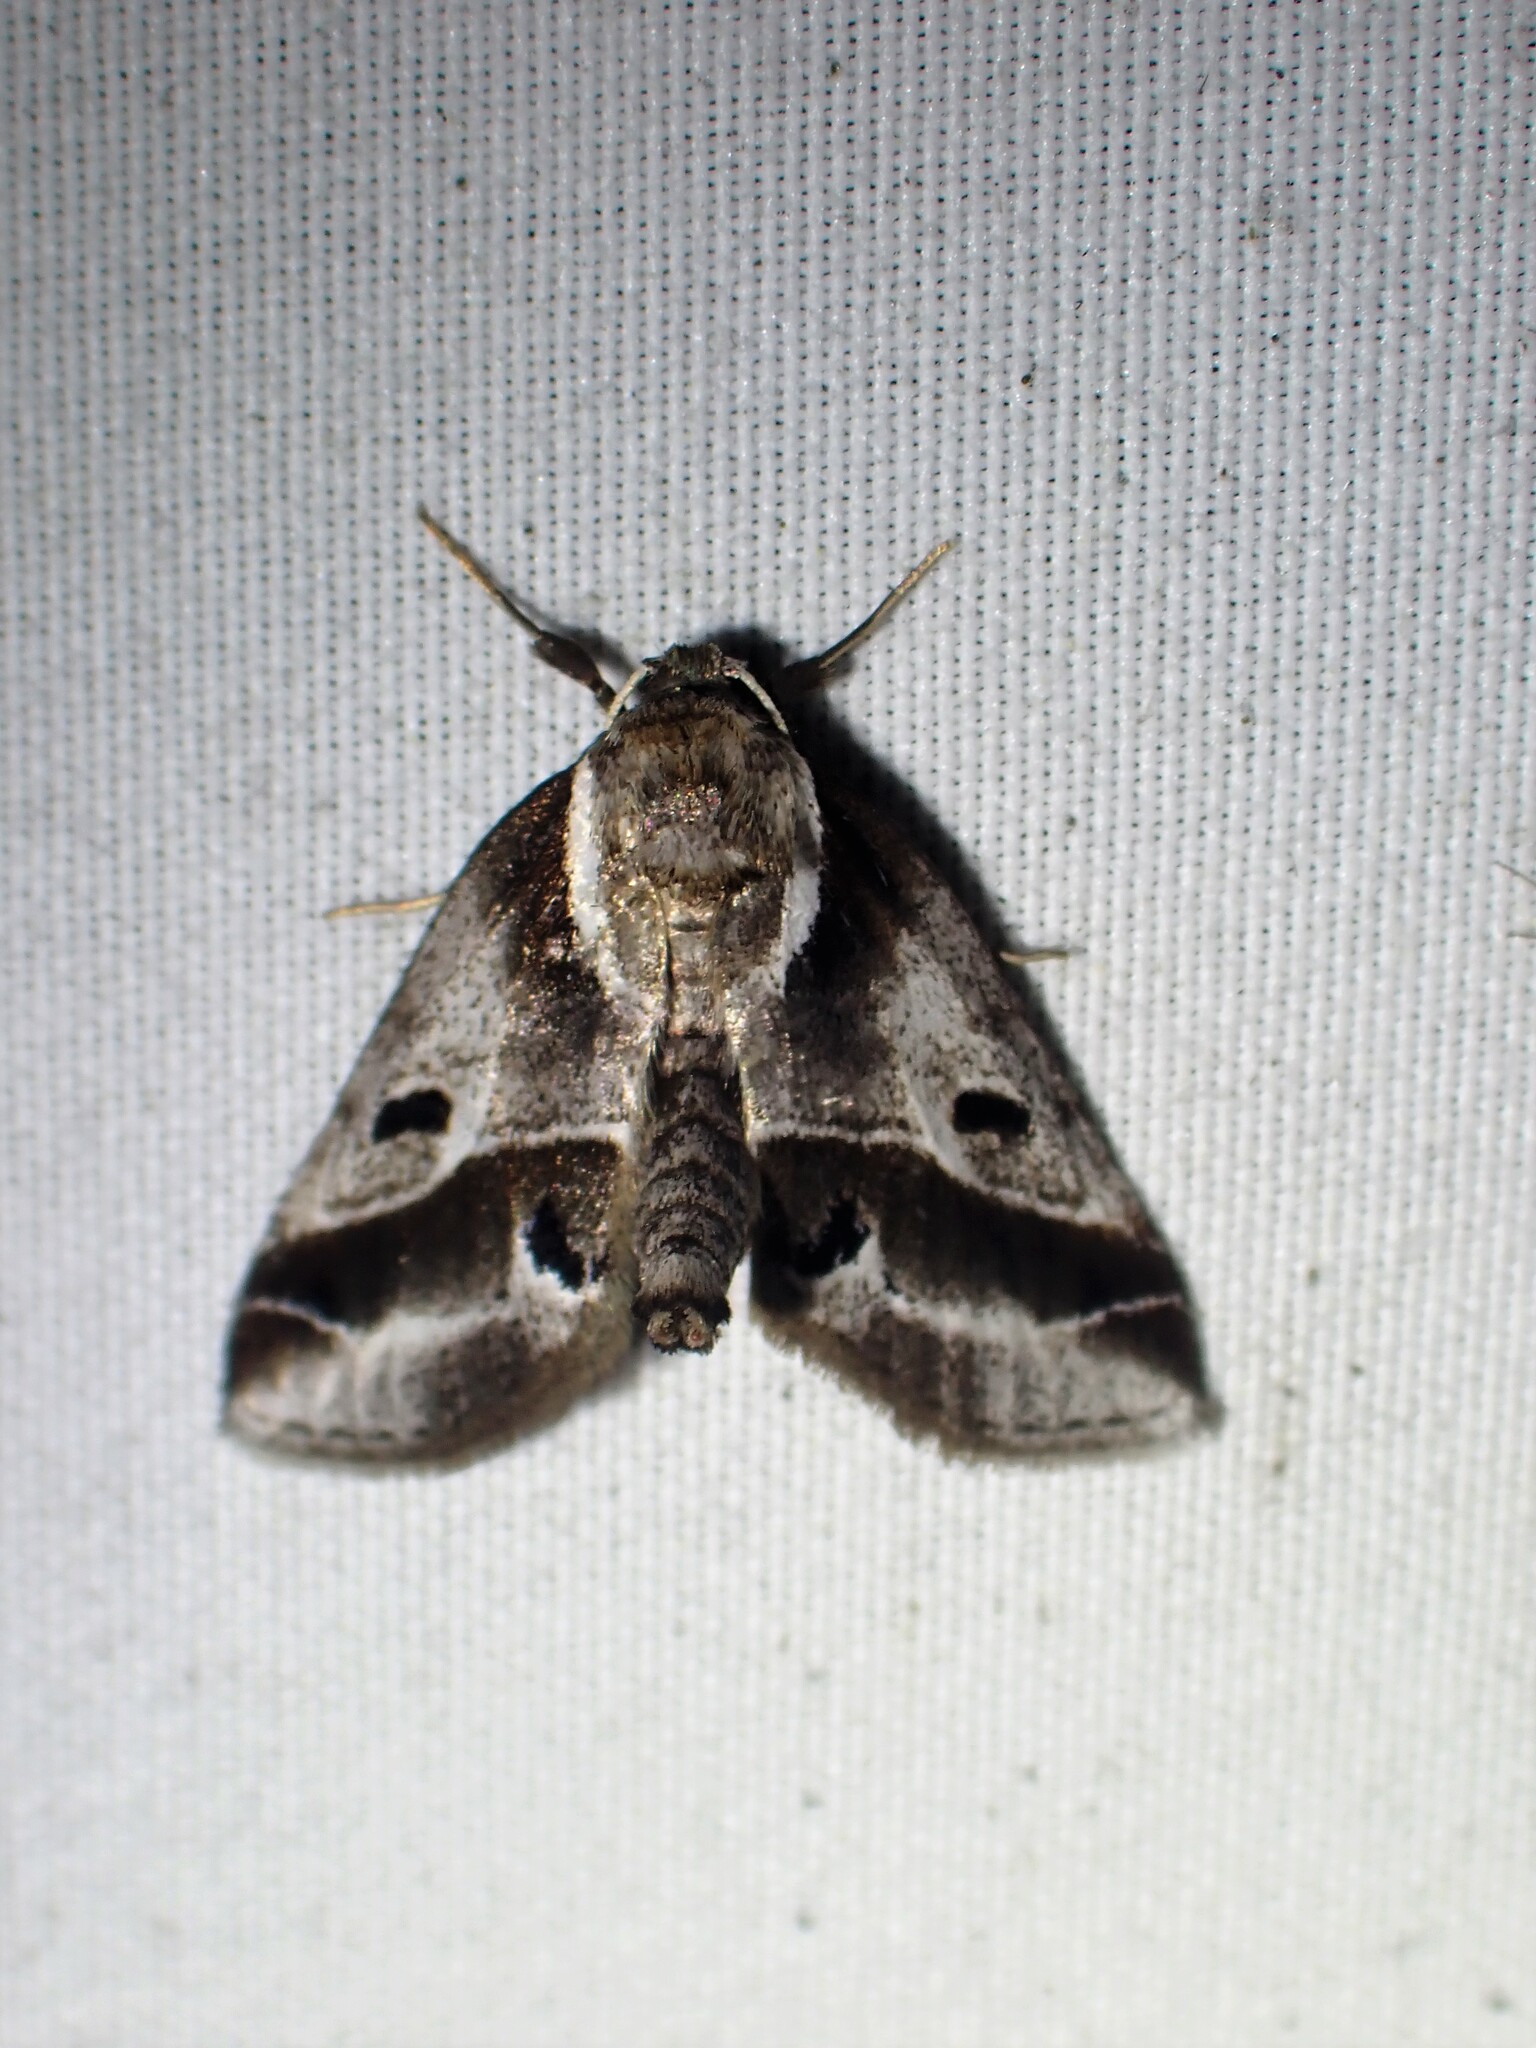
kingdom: Animalia
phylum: Arthropoda
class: Insecta
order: Lepidoptera
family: Nolidae
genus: Baileya
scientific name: Baileya doubledayi
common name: Doubleday's baileya moth
